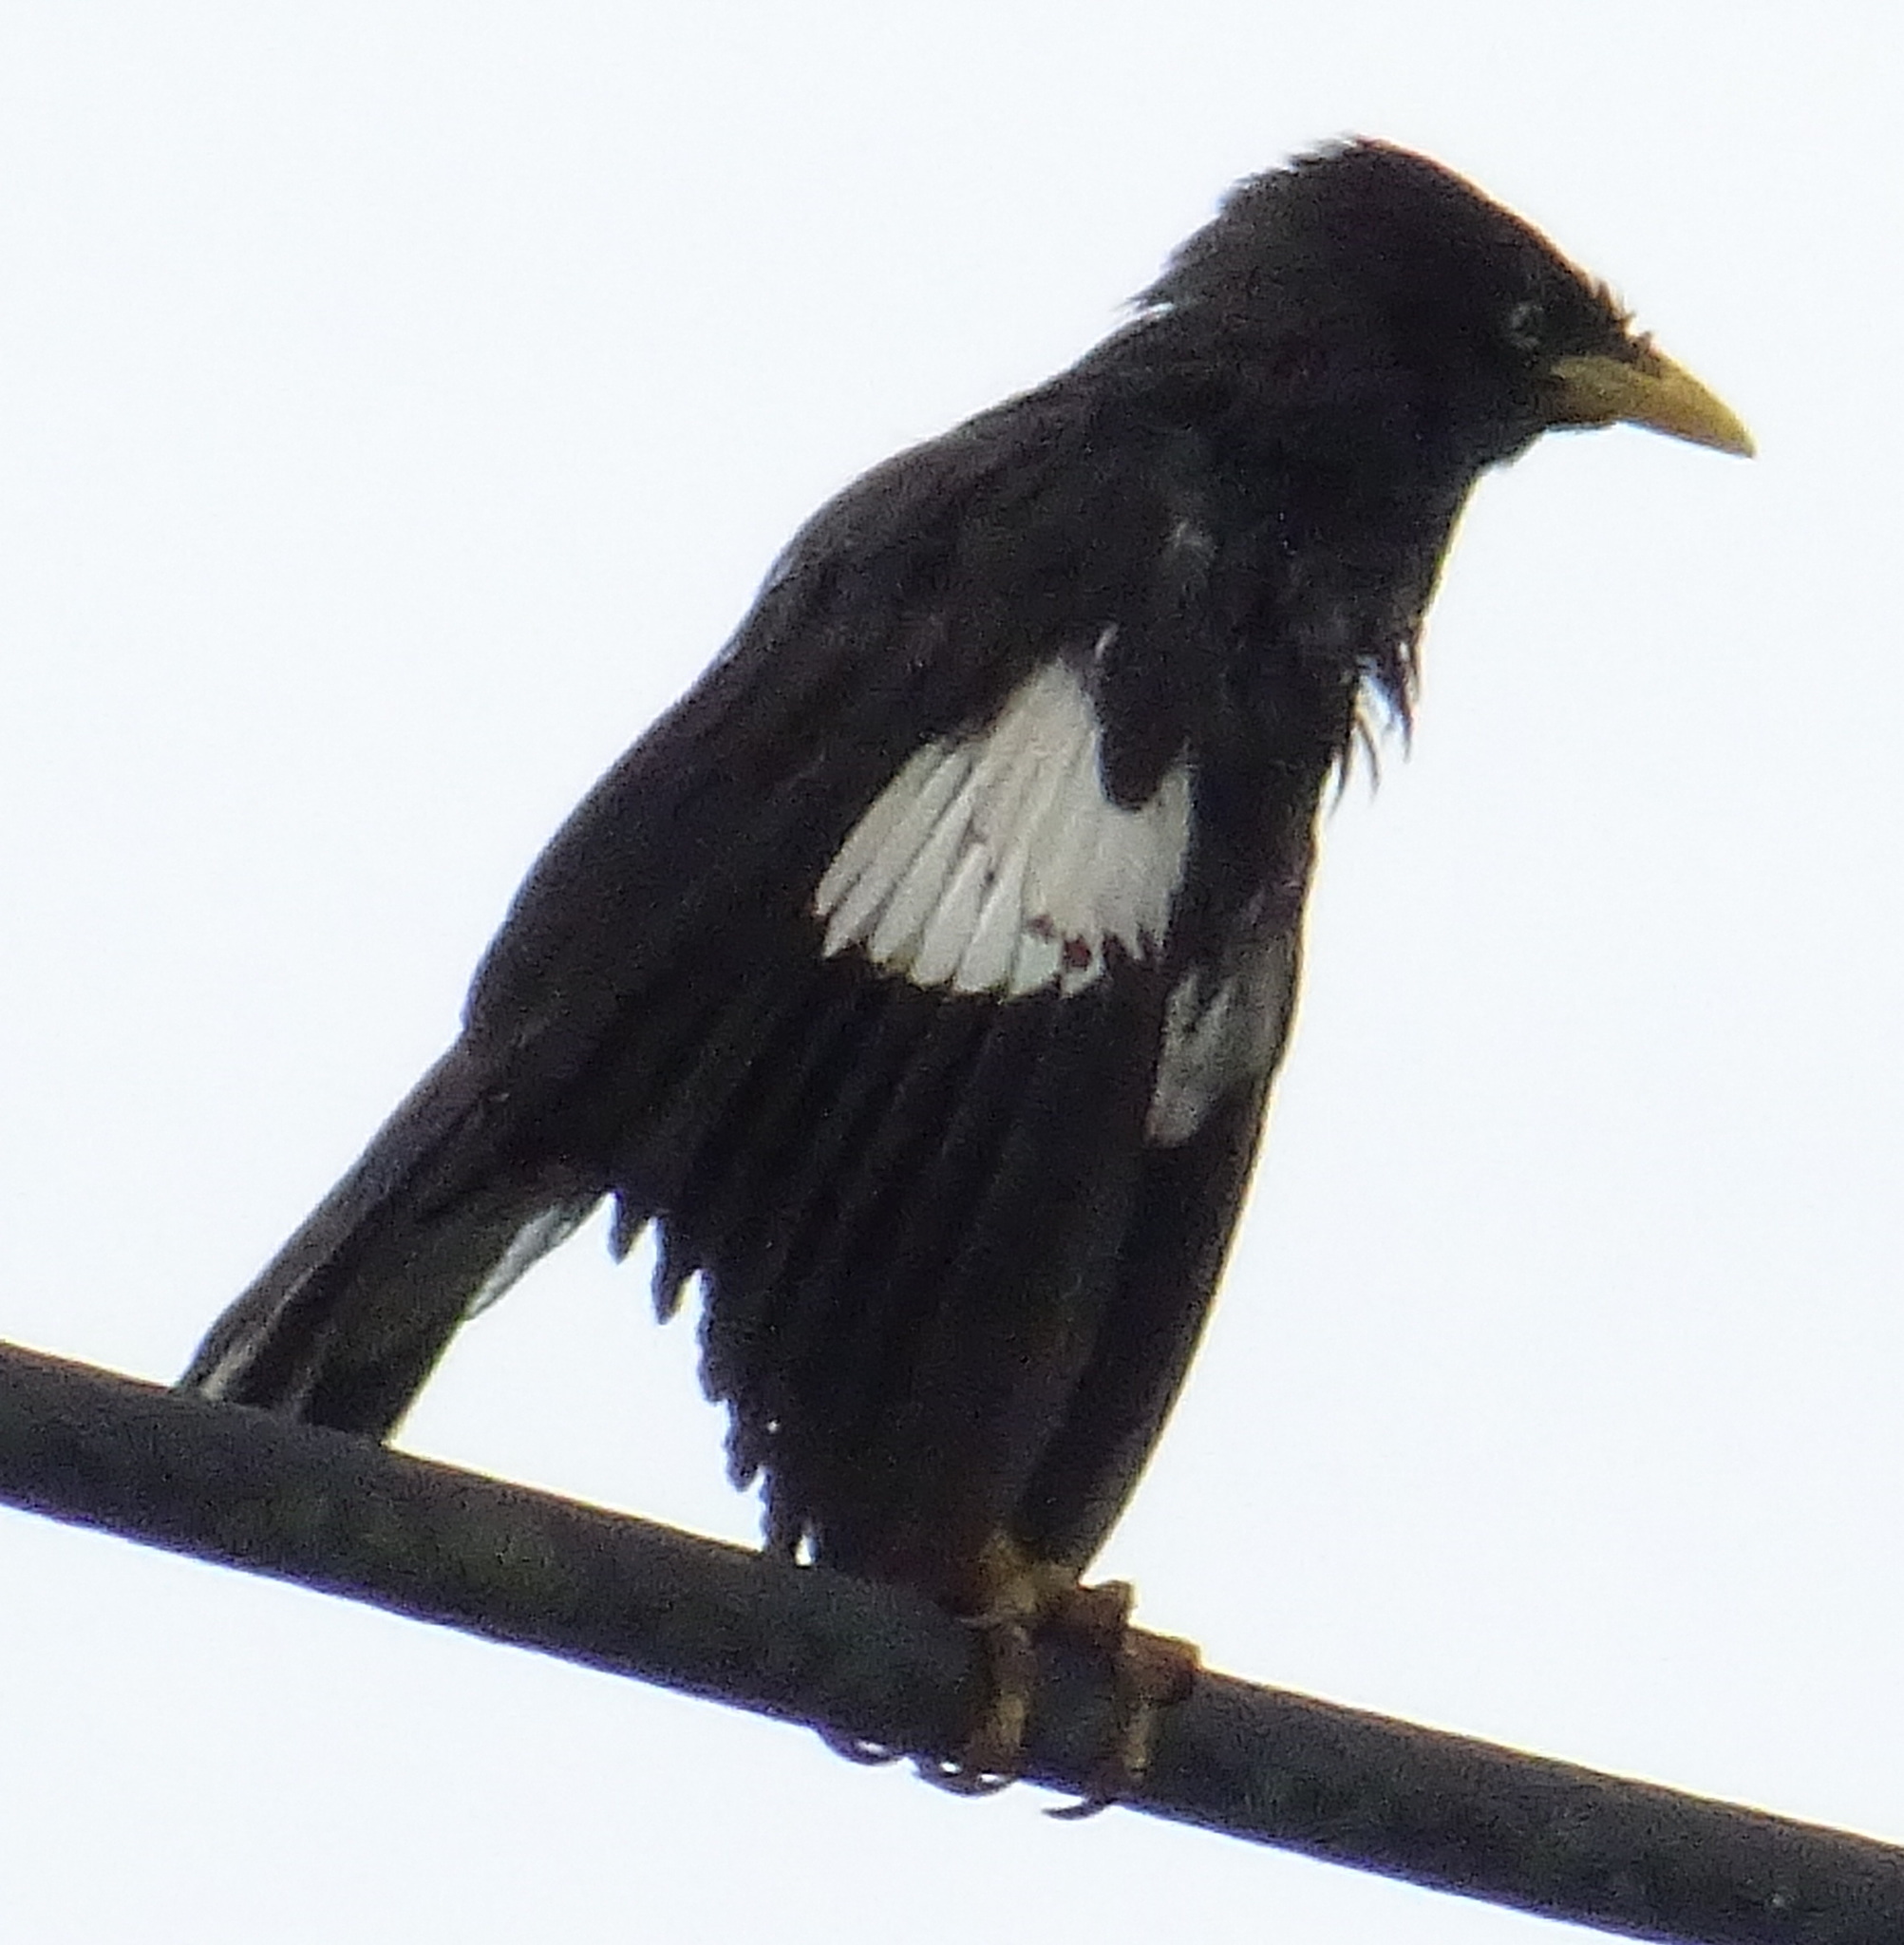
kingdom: Animalia
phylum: Chordata
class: Aves
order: Passeriformes
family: Sturnidae
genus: Acridotheres
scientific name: Acridotheres javanicus
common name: Javan myna
